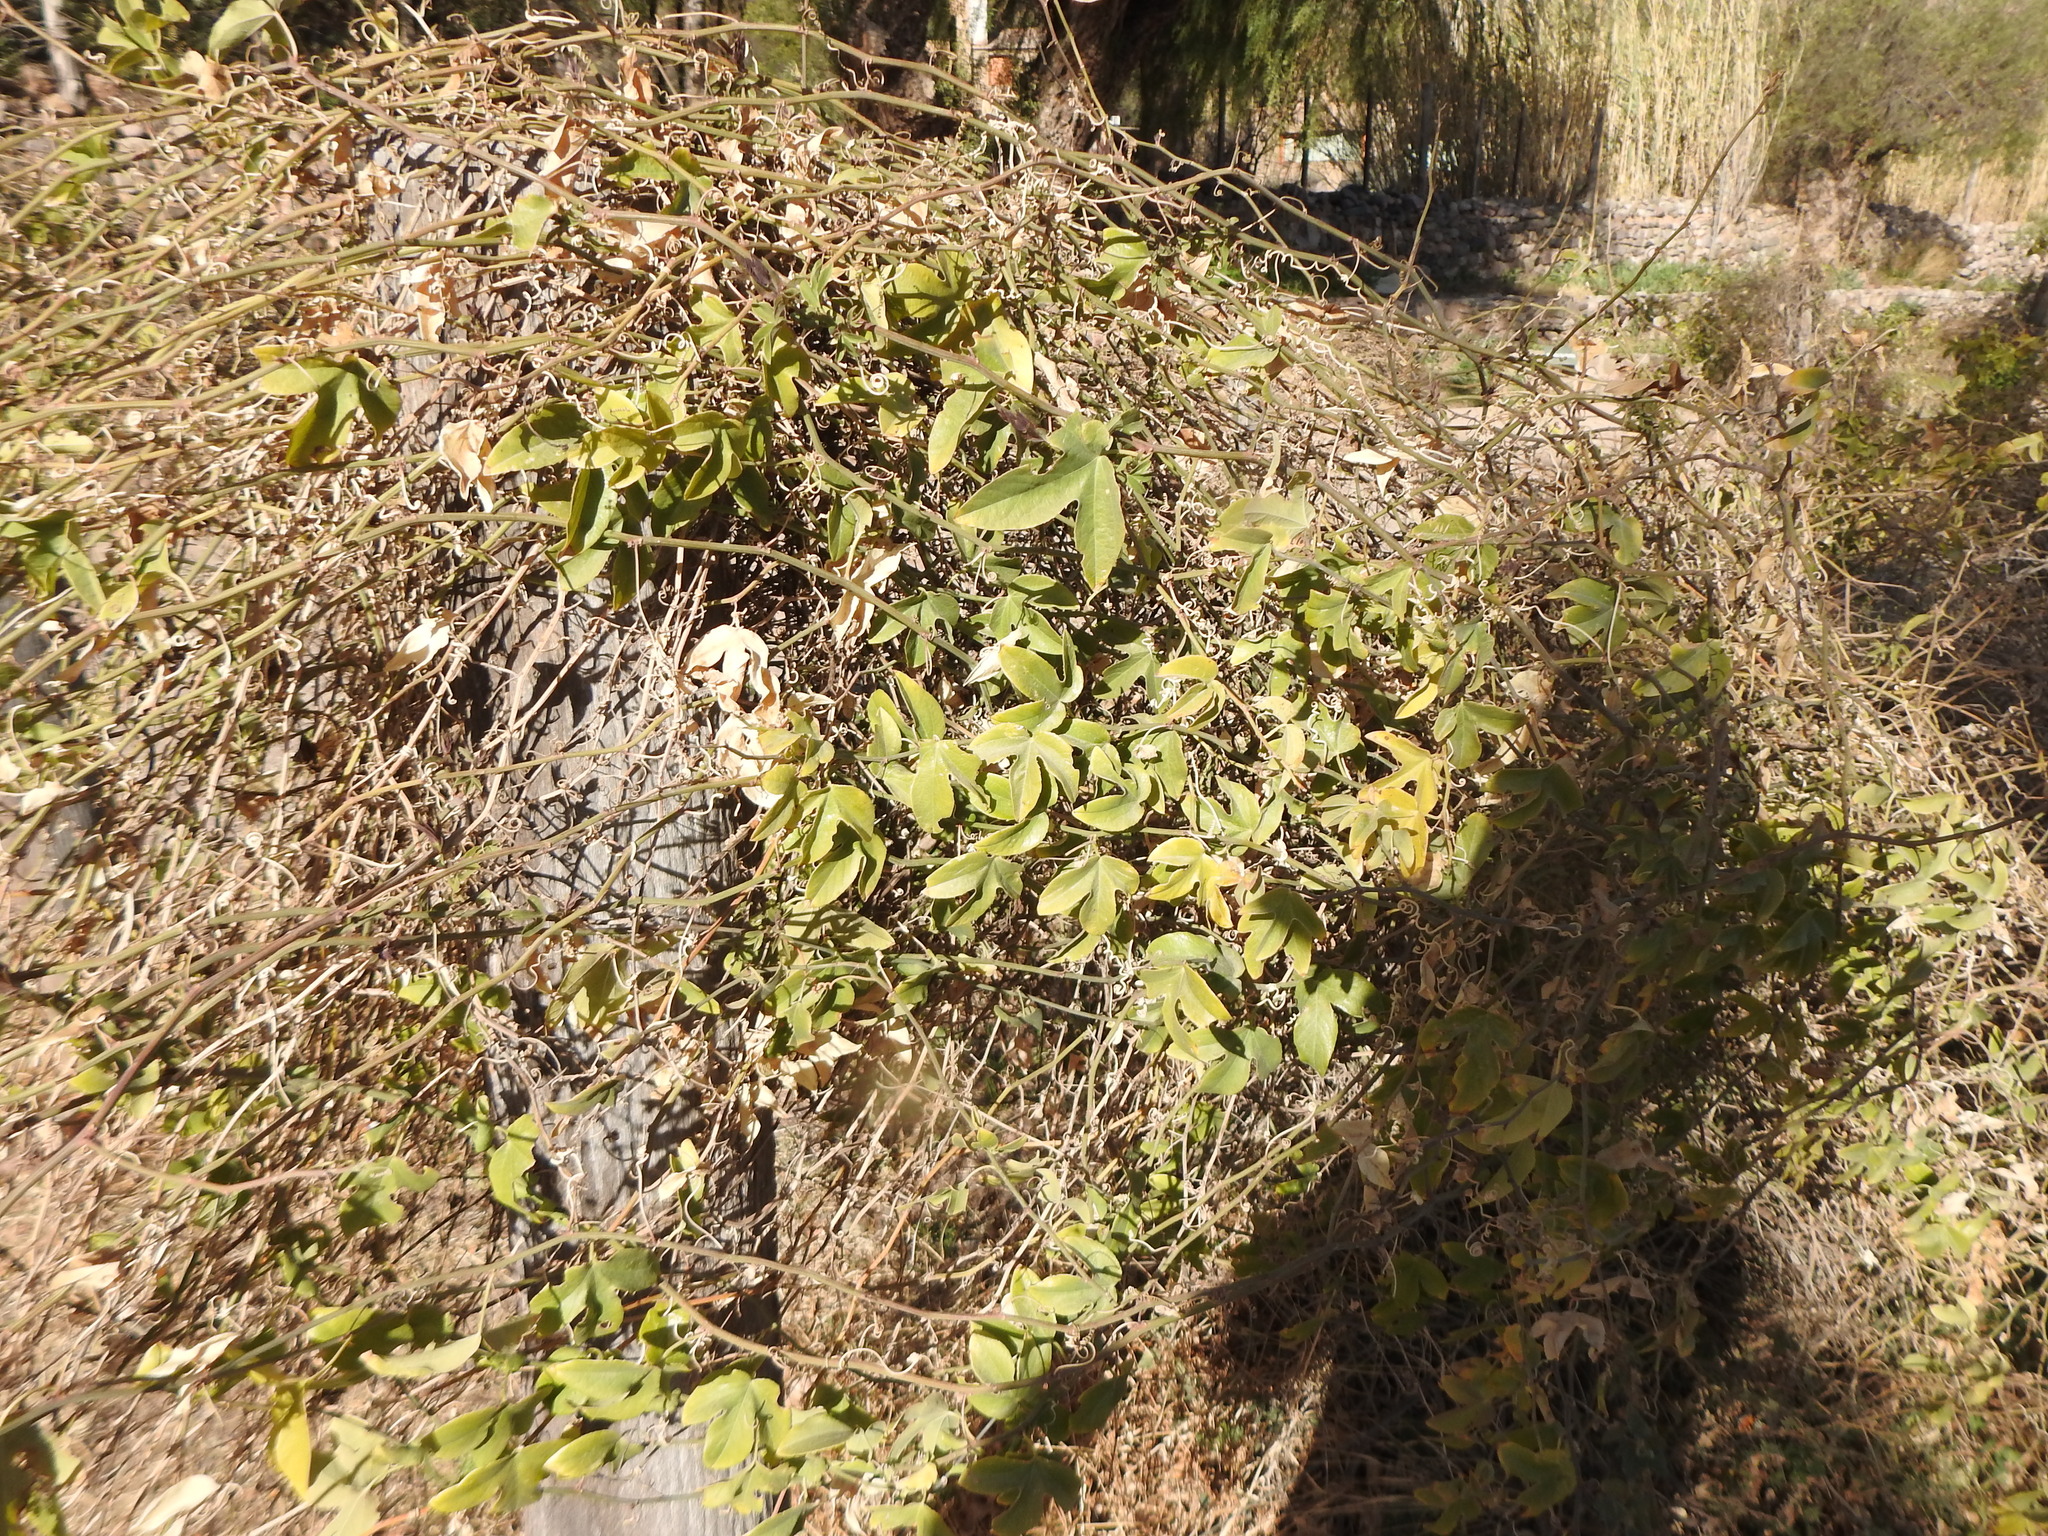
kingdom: Plantae
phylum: Tracheophyta
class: Magnoliopsida
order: Malpighiales
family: Passifloraceae
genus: Passiflora
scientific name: Passiflora tucumanensis
